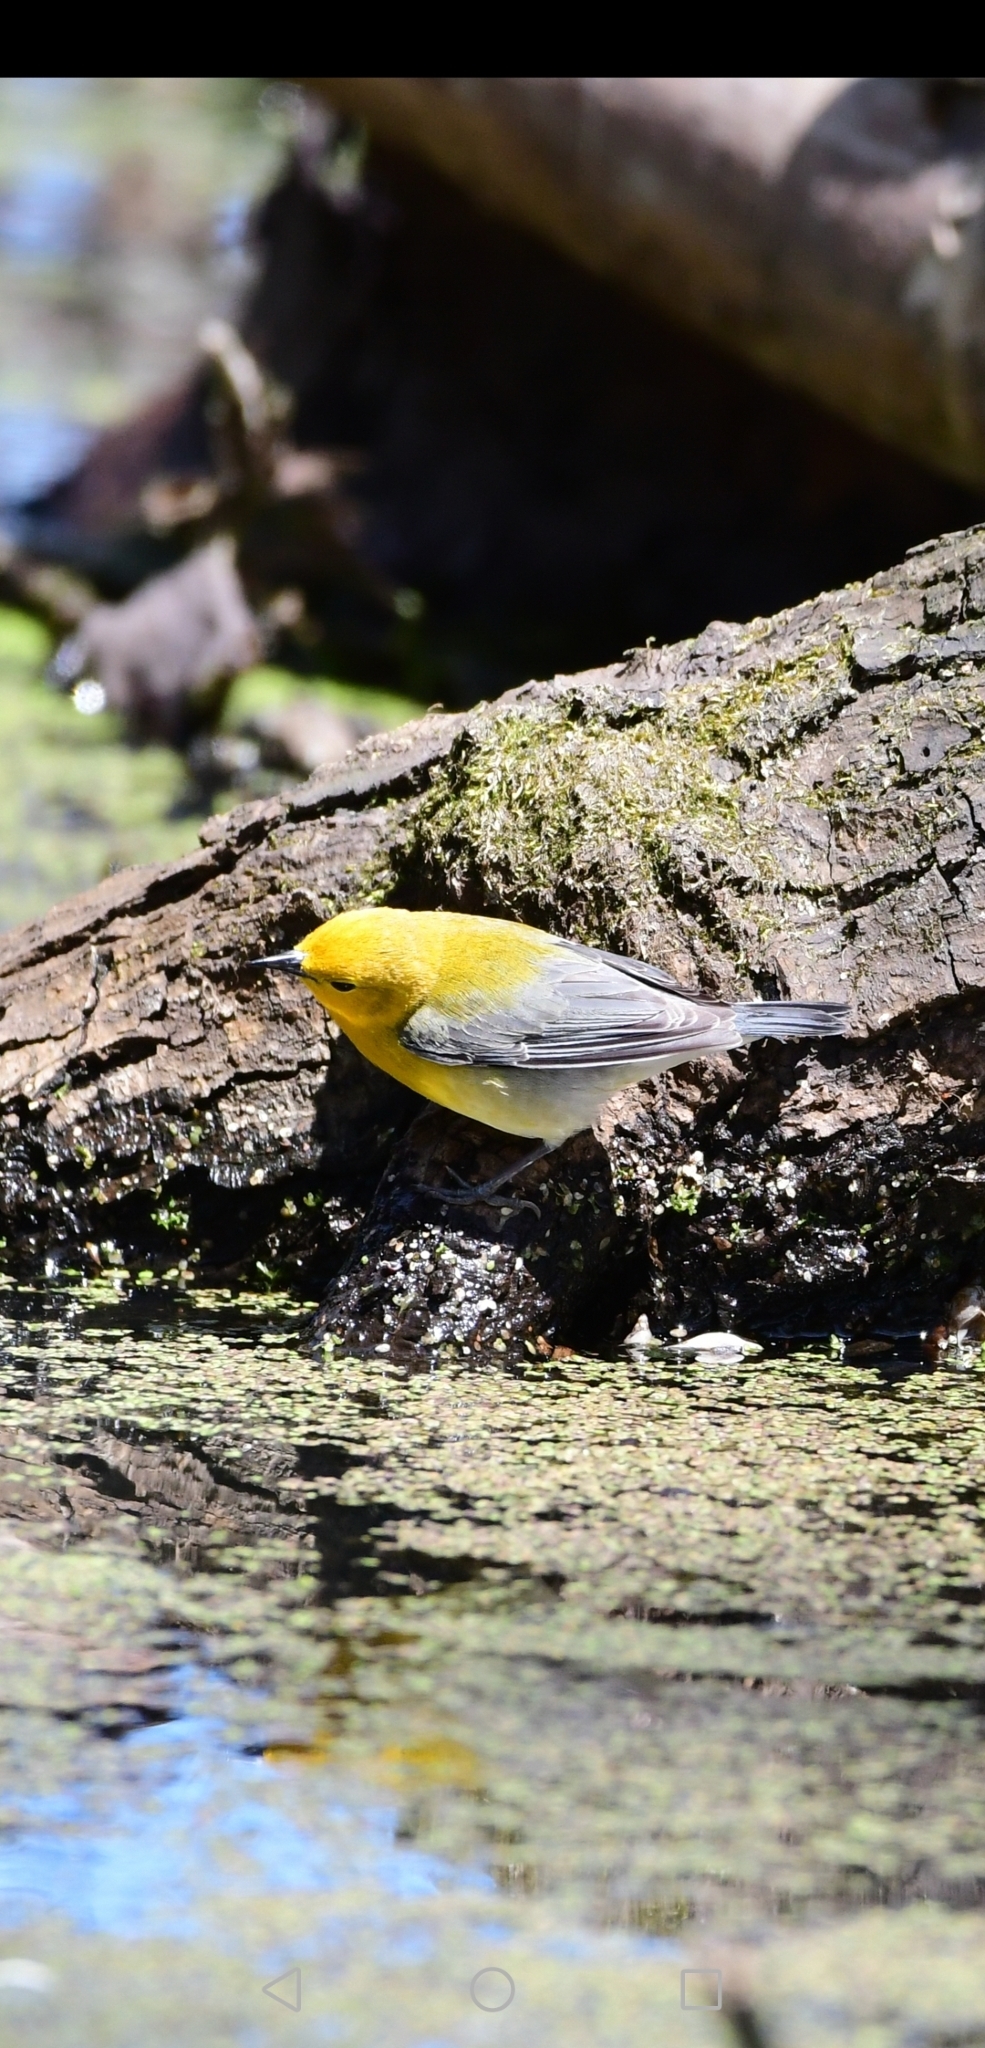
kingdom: Animalia
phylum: Chordata
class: Aves
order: Passeriformes
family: Parulidae
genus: Protonotaria
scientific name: Protonotaria citrea
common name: Prothonotary warbler
